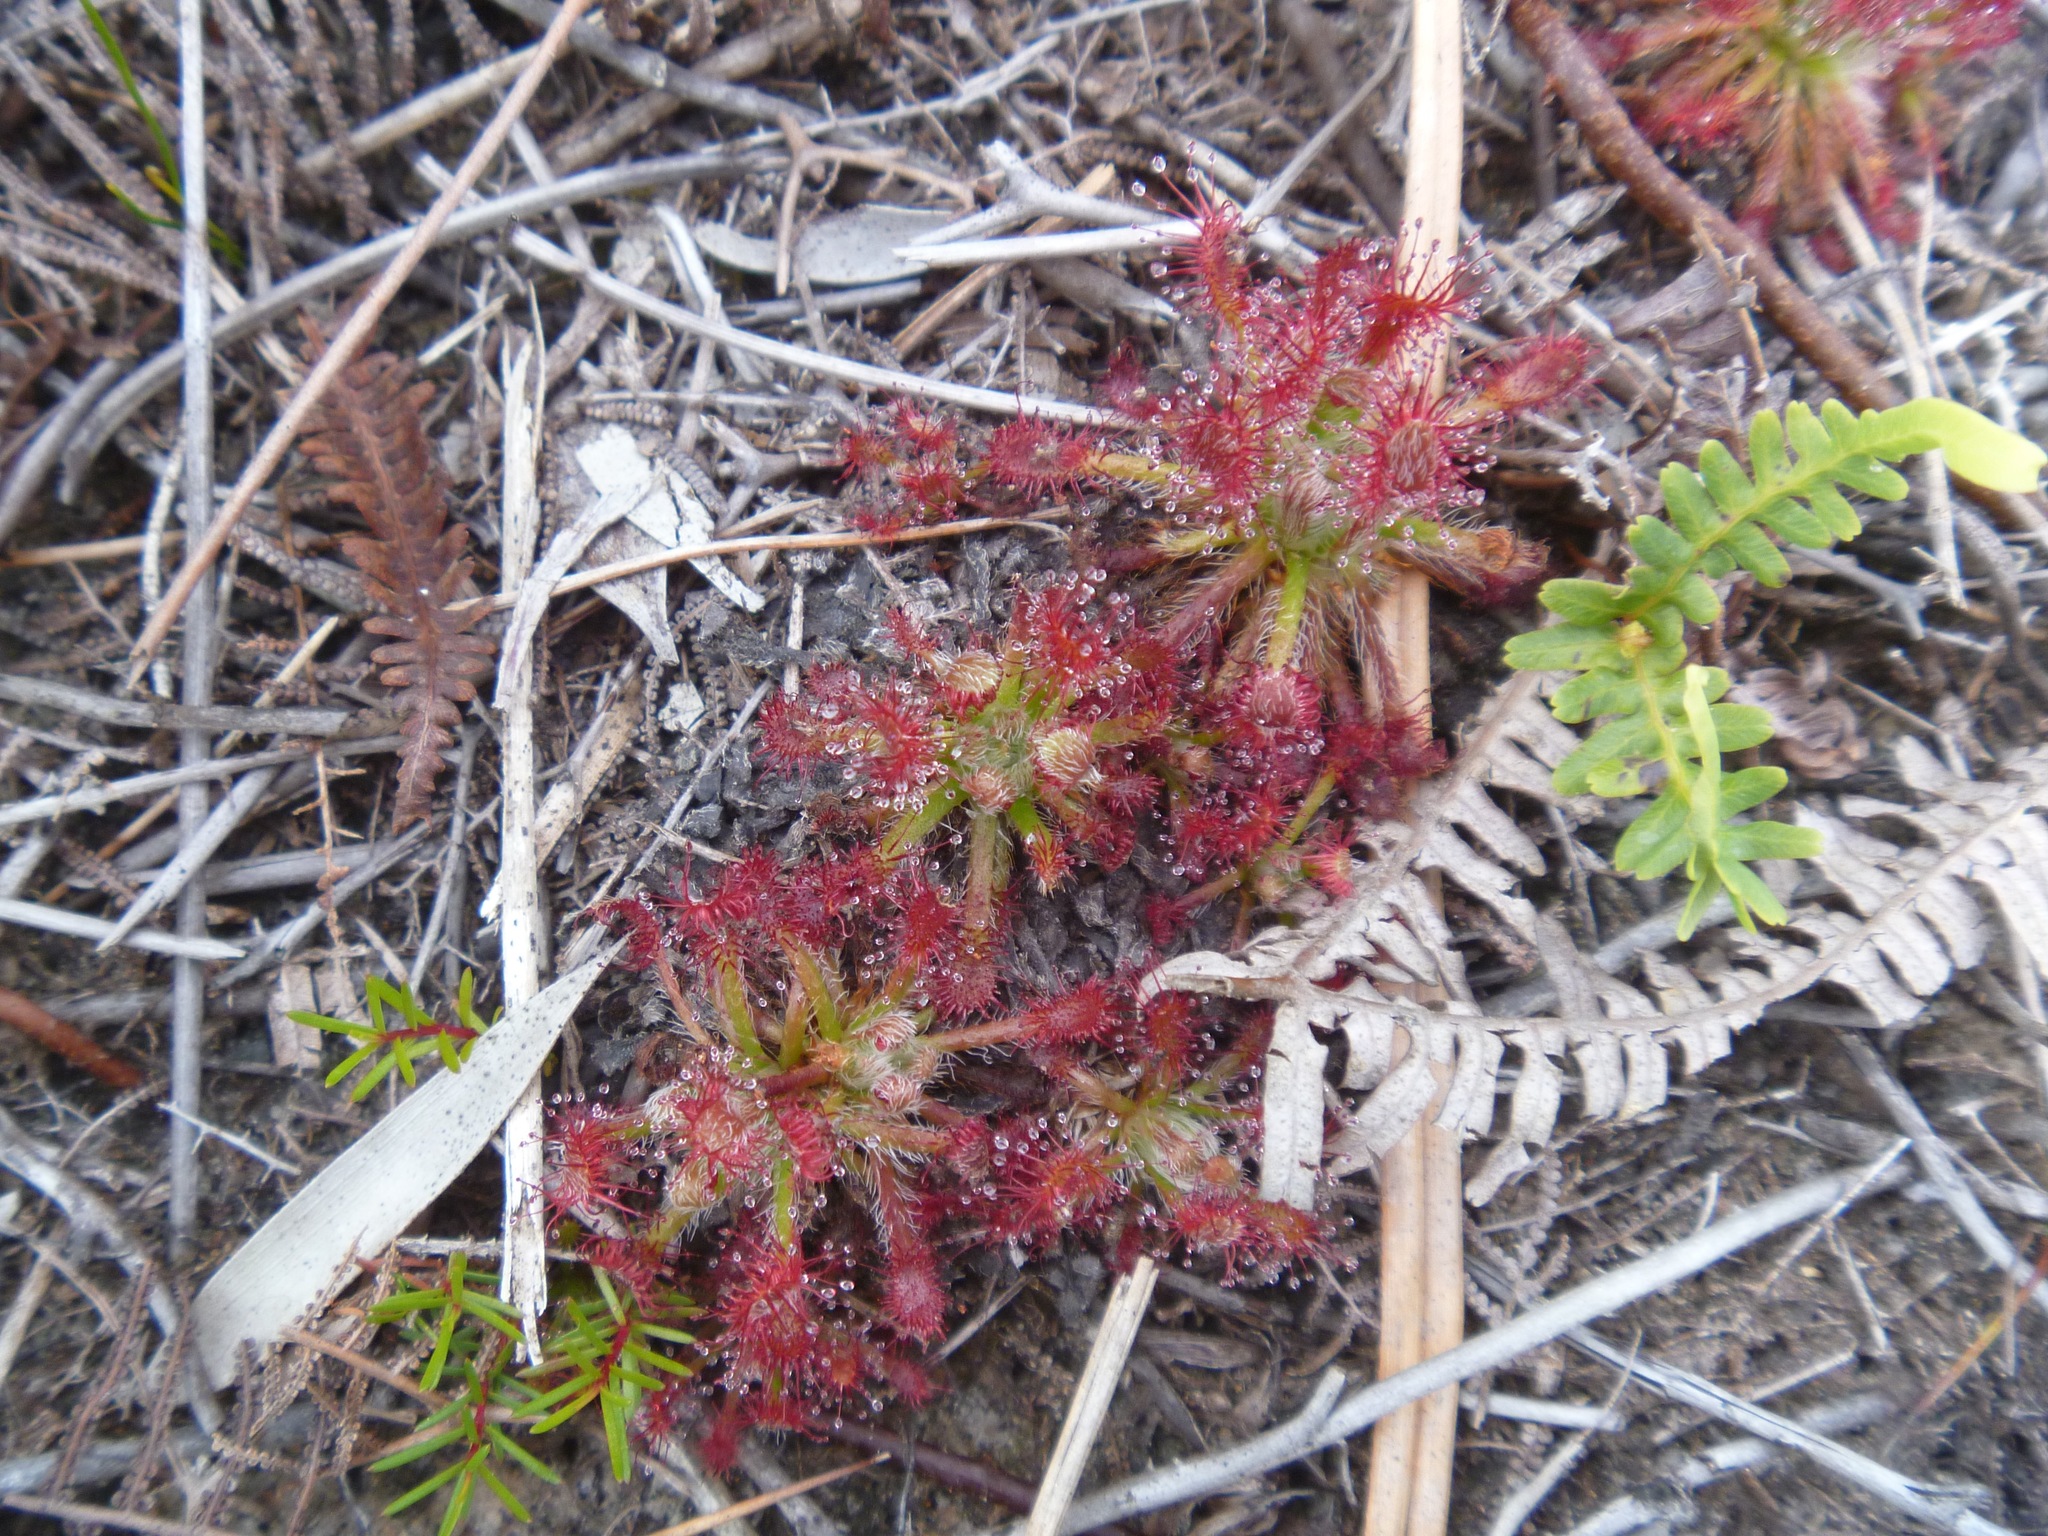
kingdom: Plantae
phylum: Tracheophyta
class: Magnoliopsida
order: Caryophyllales
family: Droseraceae
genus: Drosera
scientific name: Drosera neocaledonica
